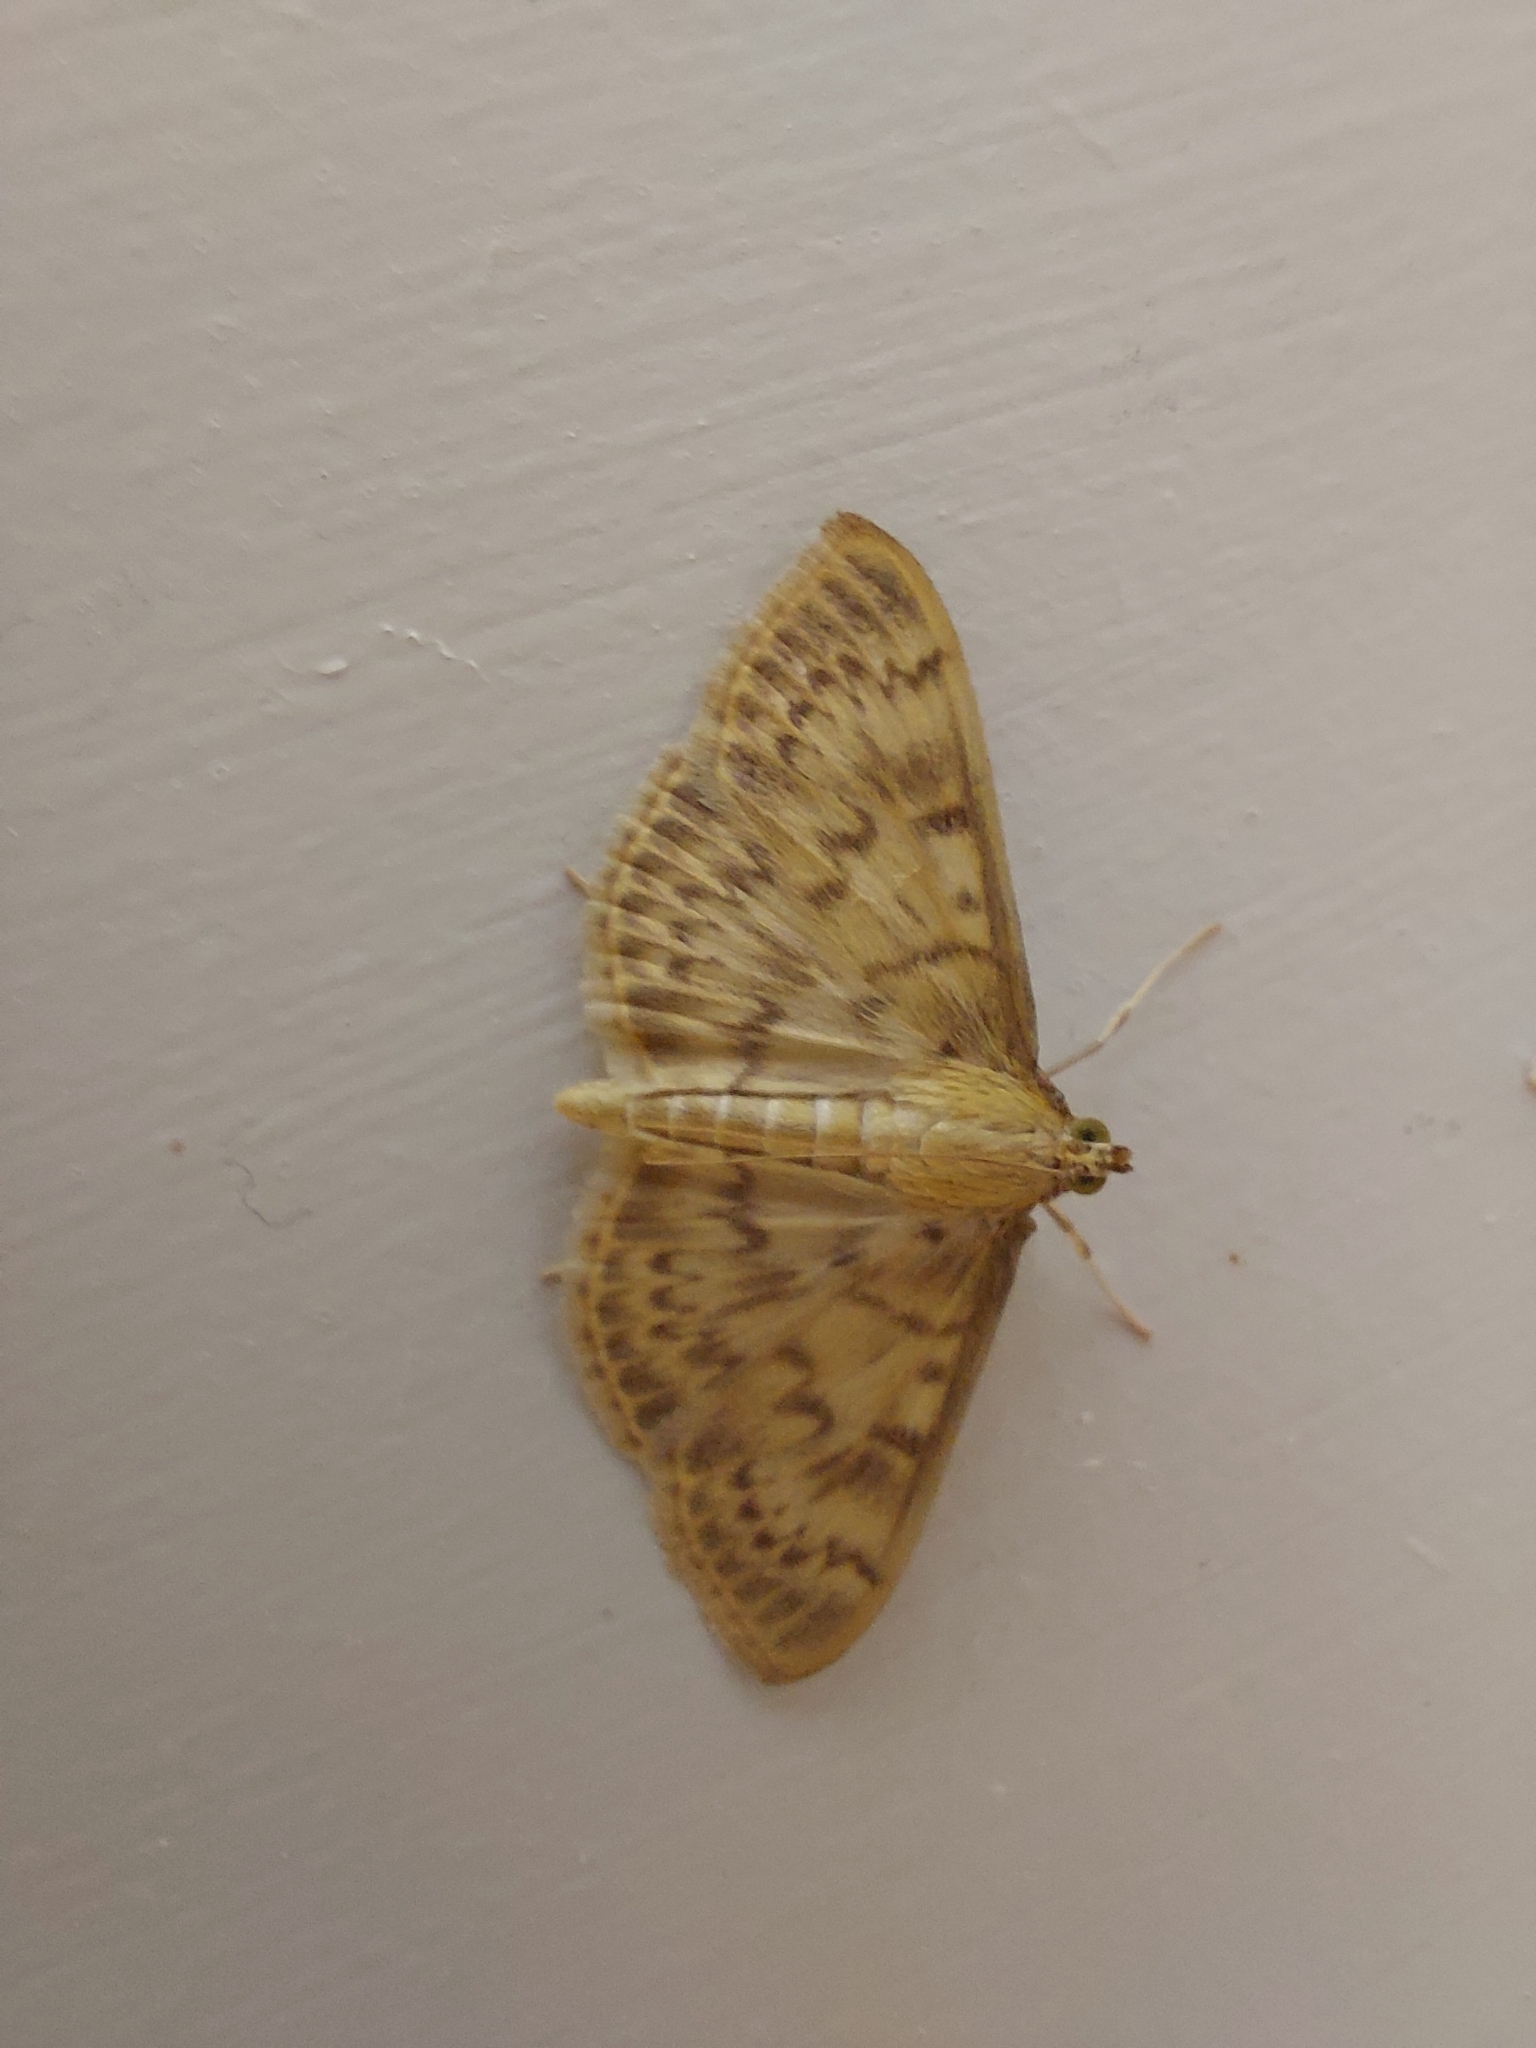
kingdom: Animalia
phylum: Arthropoda
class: Insecta
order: Lepidoptera
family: Crambidae
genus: Patania
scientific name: Patania ruralis
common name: Mother of pearl
